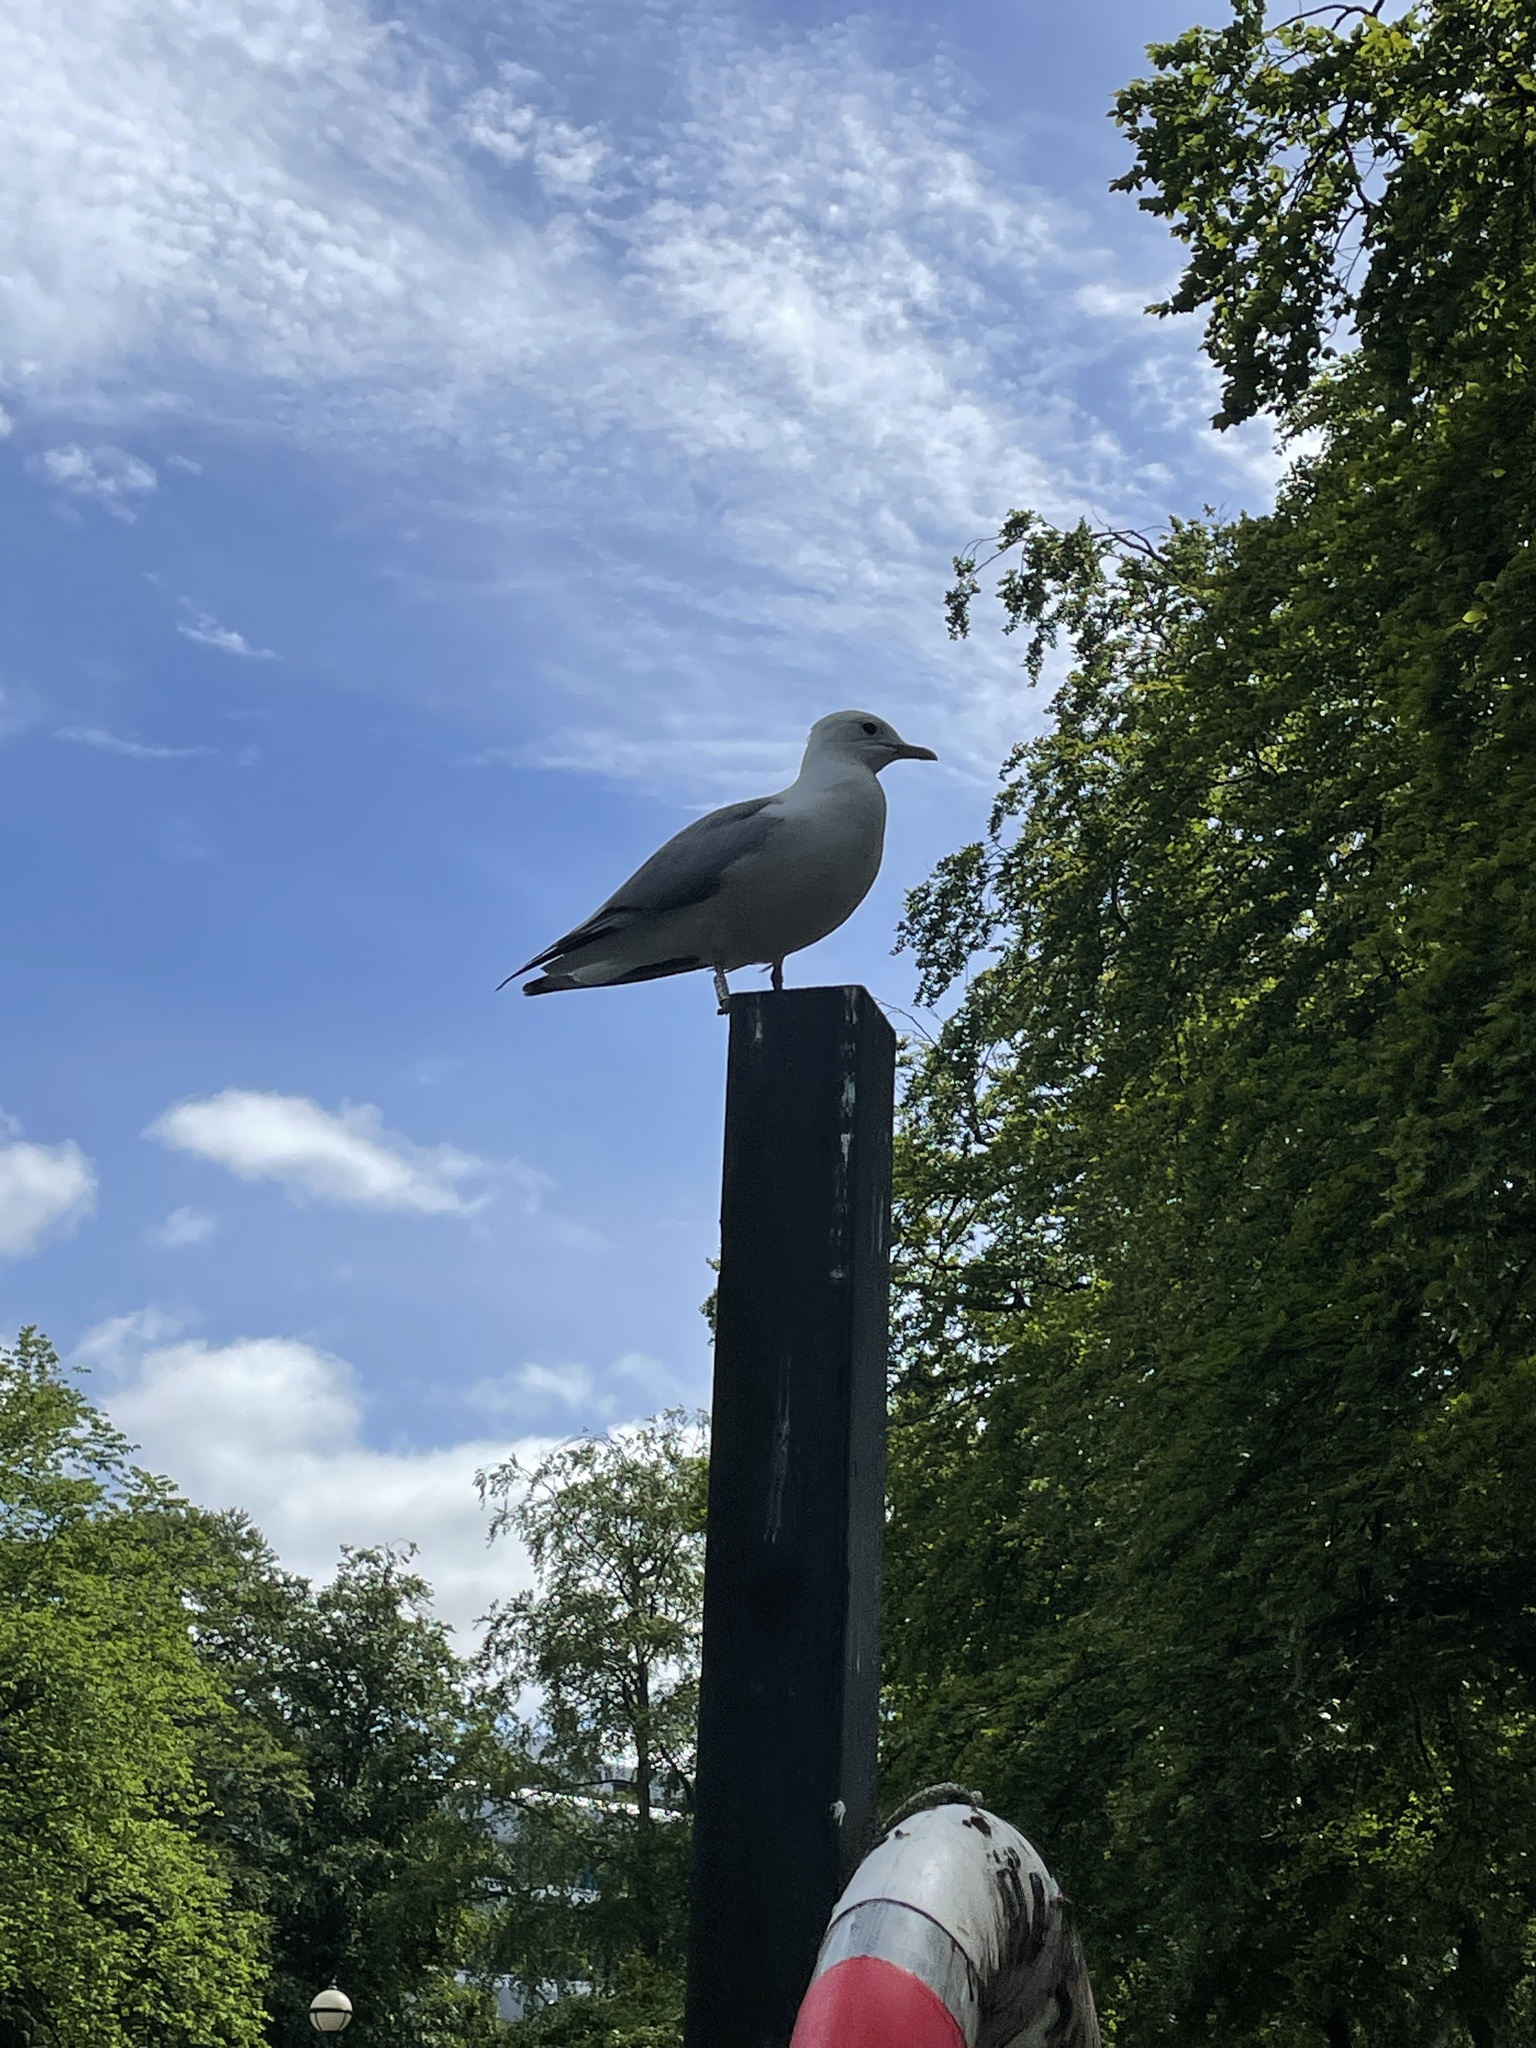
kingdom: Animalia
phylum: Chordata
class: Aves
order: Charadriiformes
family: Laridae
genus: Larus
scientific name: Larus canus
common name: Mew gull
